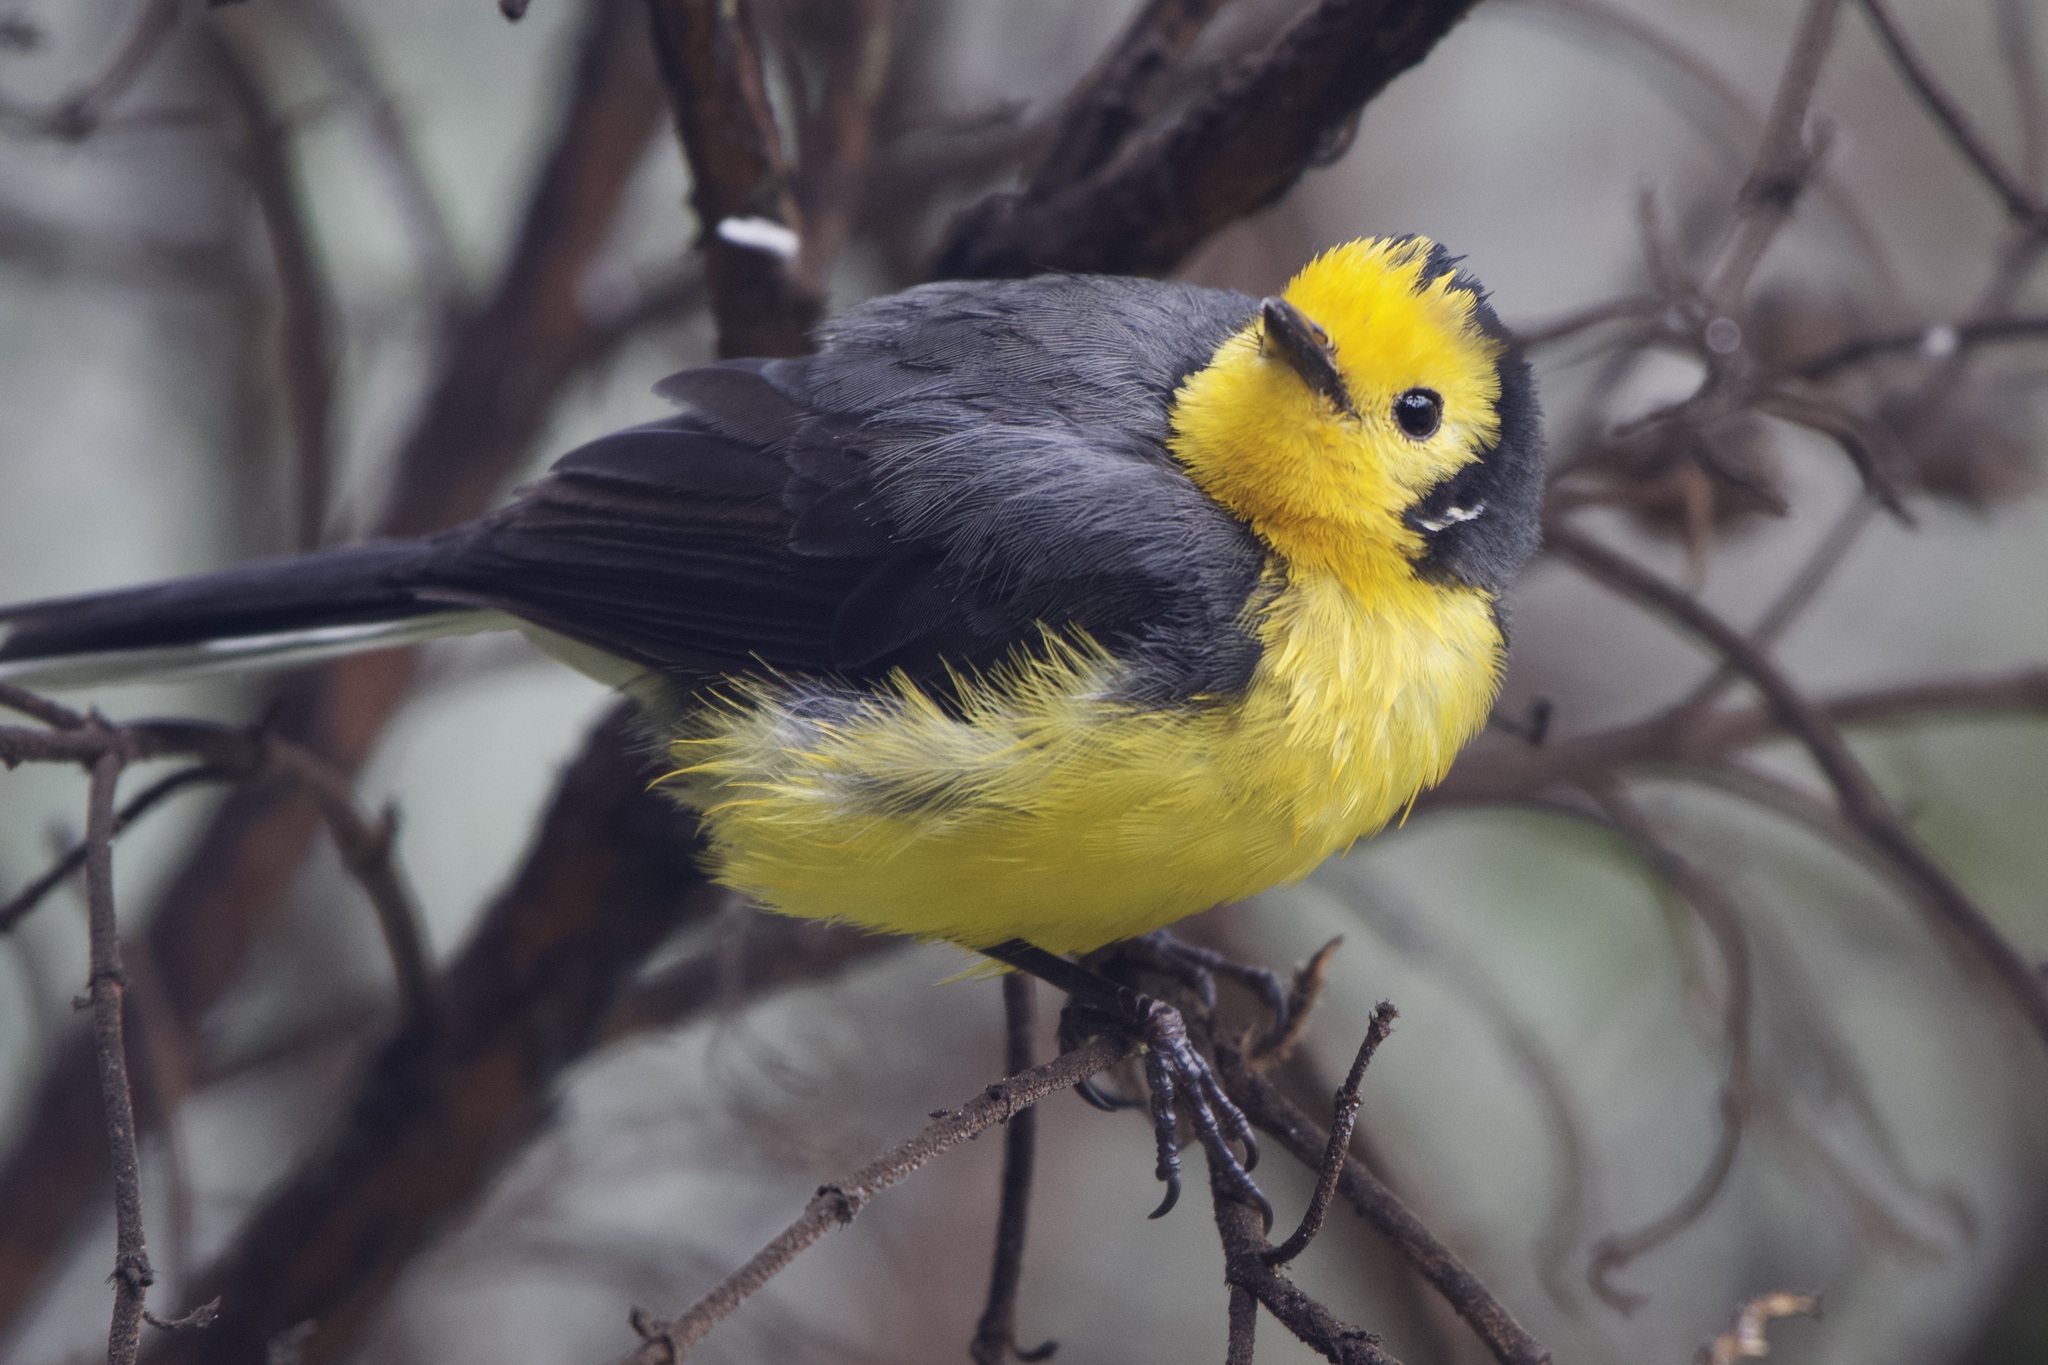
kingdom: Animalia
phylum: Chordata
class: Aves
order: Passeriformes
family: Parulidae
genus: Myioborus
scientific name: Myioborus ornatus
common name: Golden-fronted whitestart
